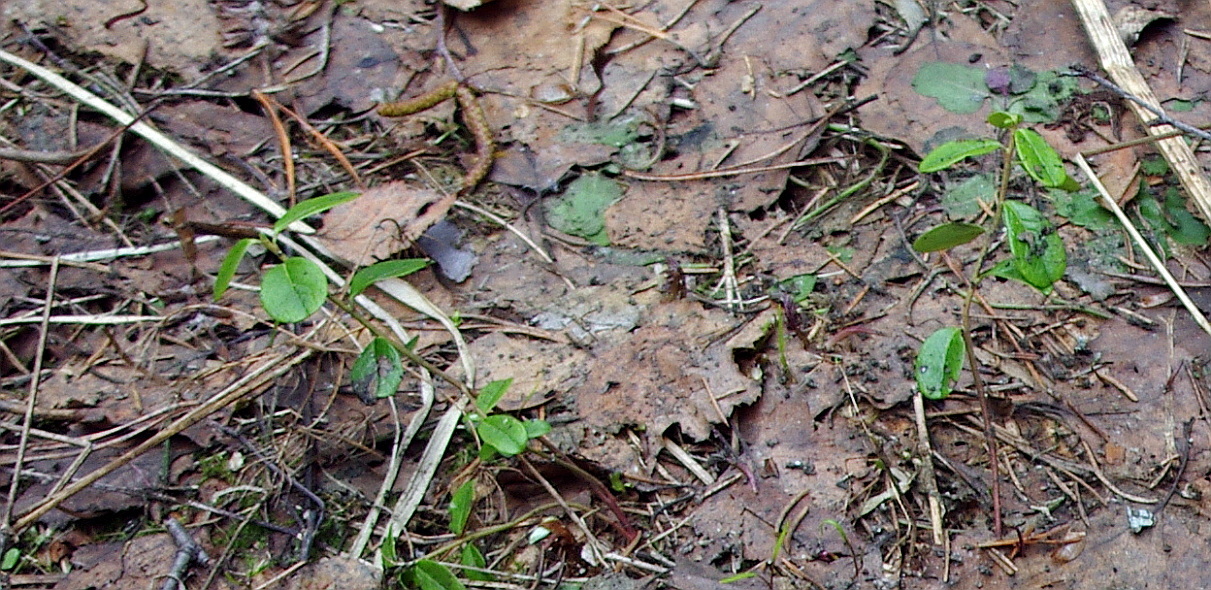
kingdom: Plantae
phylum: Tracheophyta
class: Magnoliopsida
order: Ericales
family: Ericaceae
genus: Vaccinium
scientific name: Vaccinium vitis-idaea
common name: Cowberry
